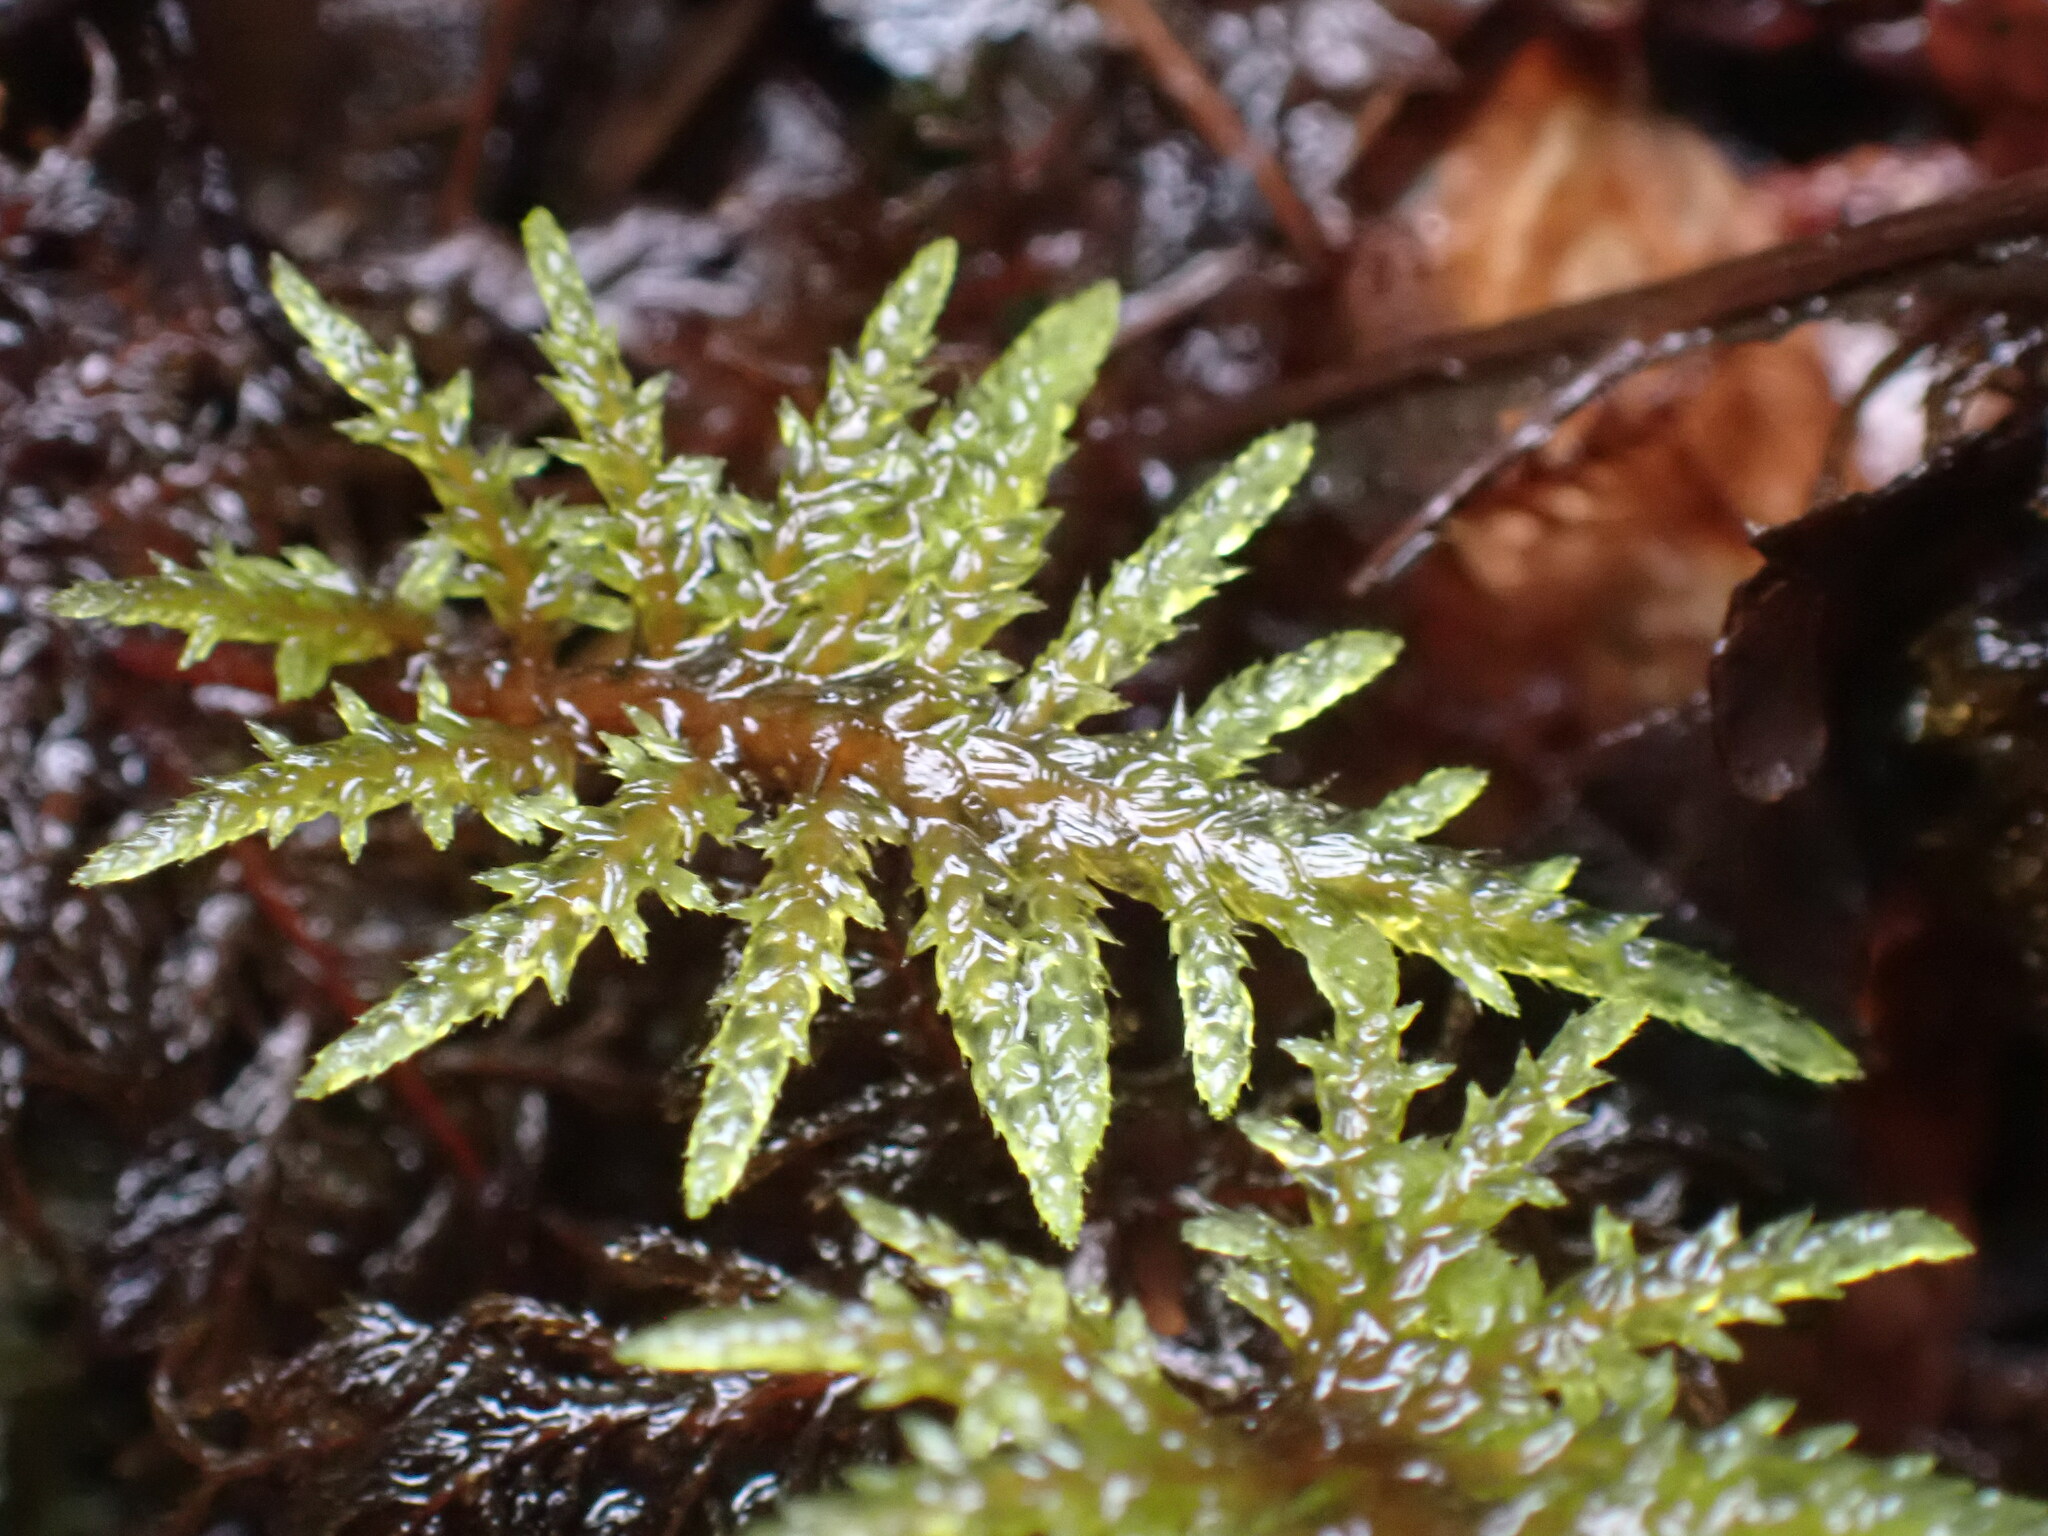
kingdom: Plantae
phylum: Bryophyta
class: Bryopsida
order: Hypnales
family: Hylocomiaceae
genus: Hylocomium
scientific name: Hylocomium splendens
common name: Stairstep moss
